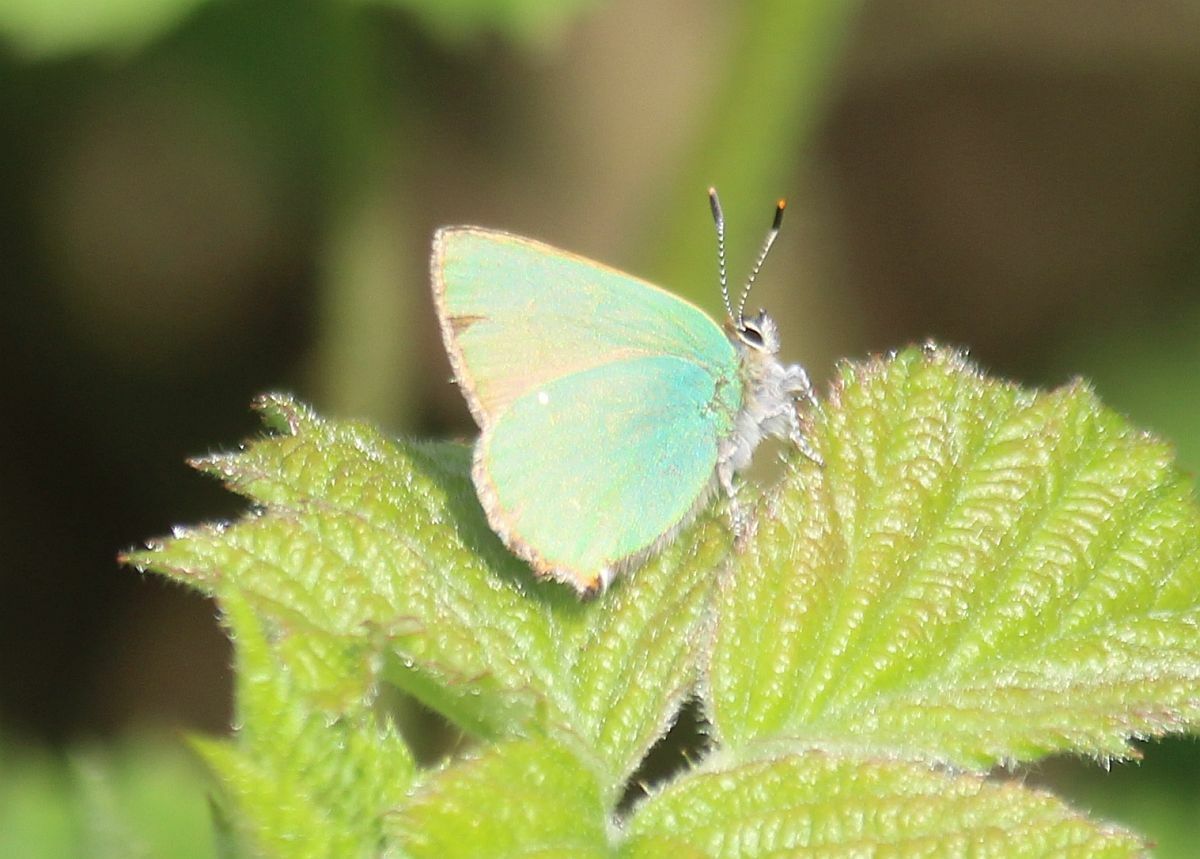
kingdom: Animalia
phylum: Arthropoda
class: Insecta
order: Lepidoptera
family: Lycaenidae
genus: Callophrys
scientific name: Callophrys rubi
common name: Green hairstreak
